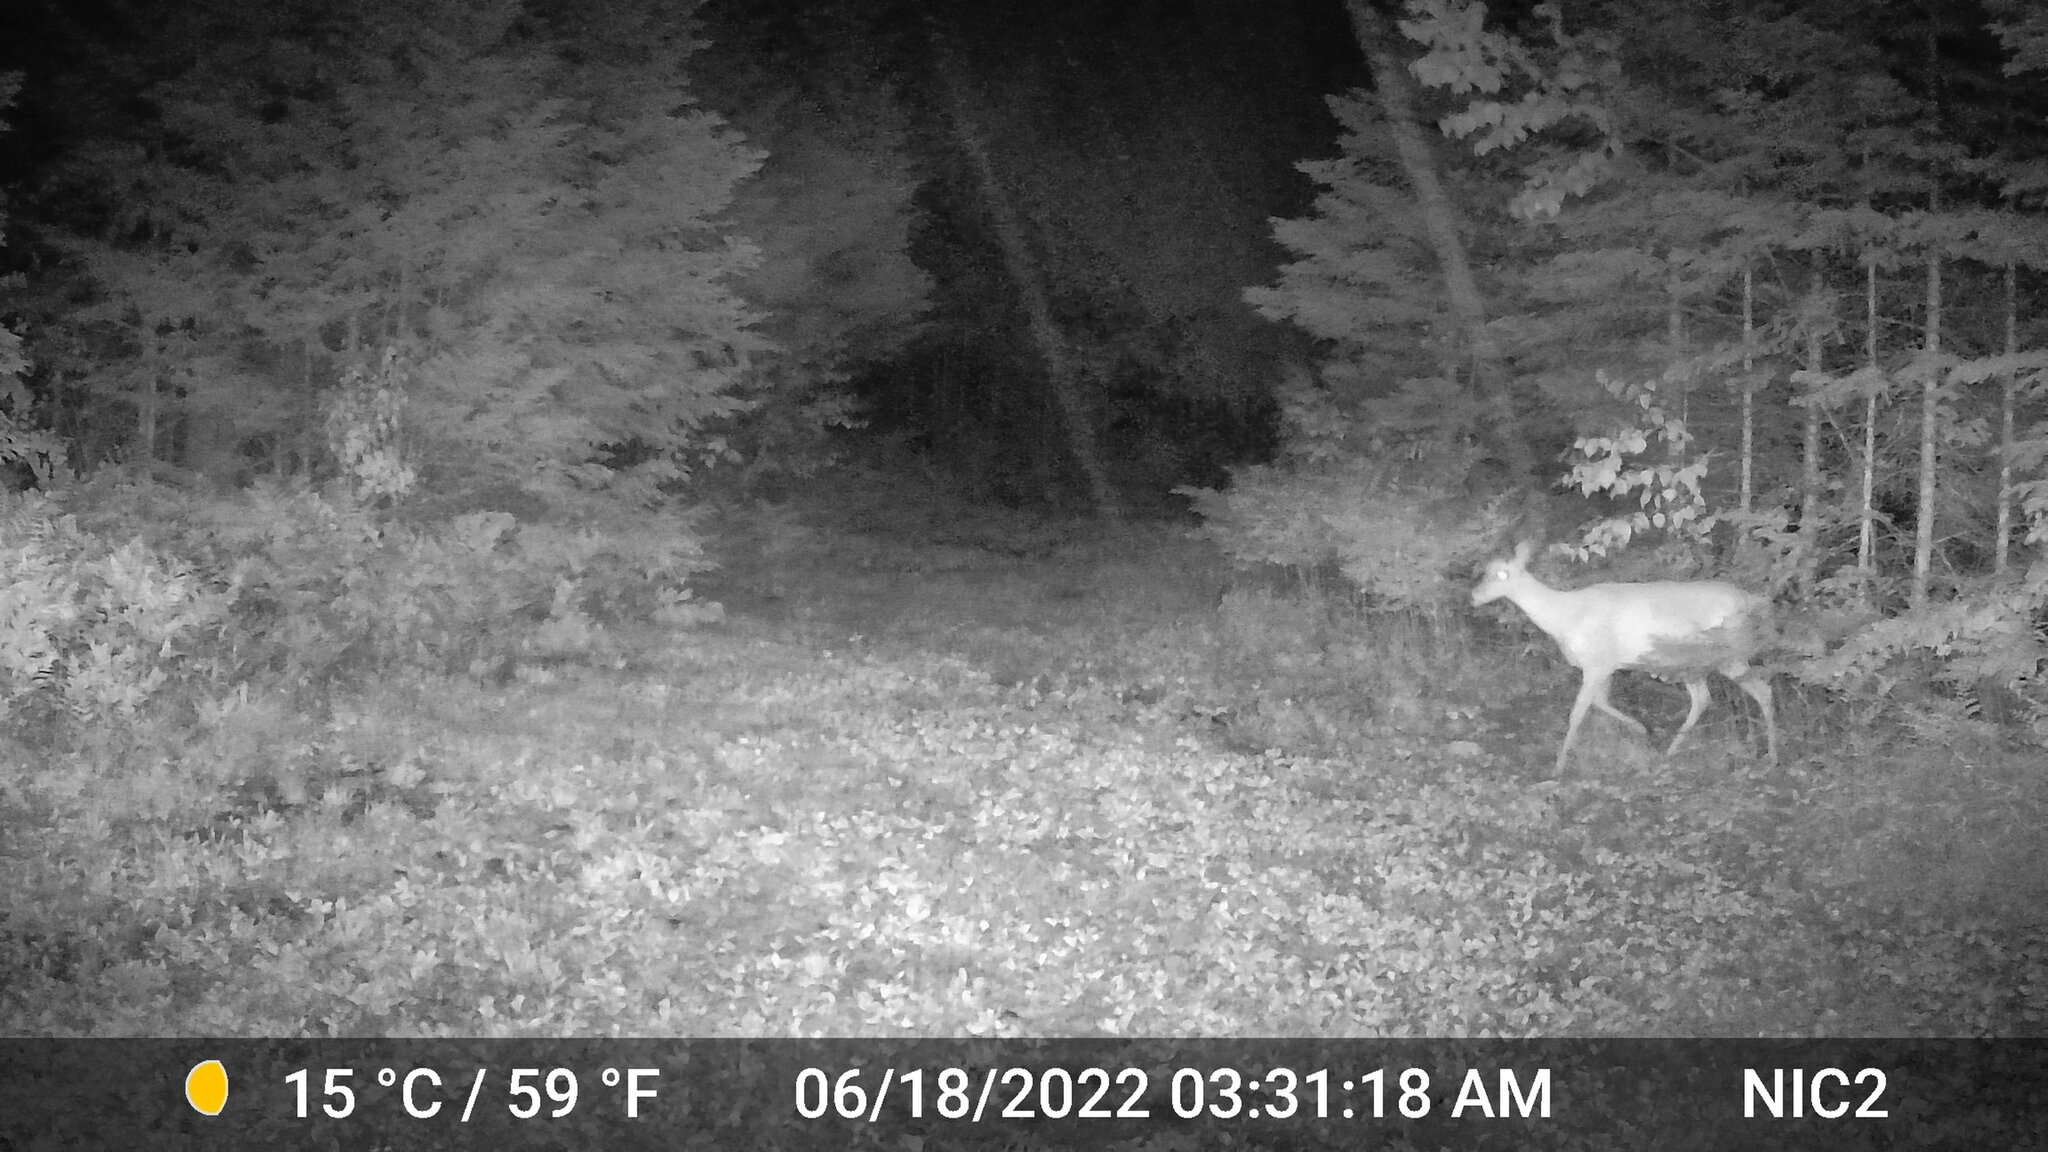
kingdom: Animalia
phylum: Chordata
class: Mammalia
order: Artiodactyla
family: Cervidae
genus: Odocoileus
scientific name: Odocoileus virginianus
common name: White-tailed deer
